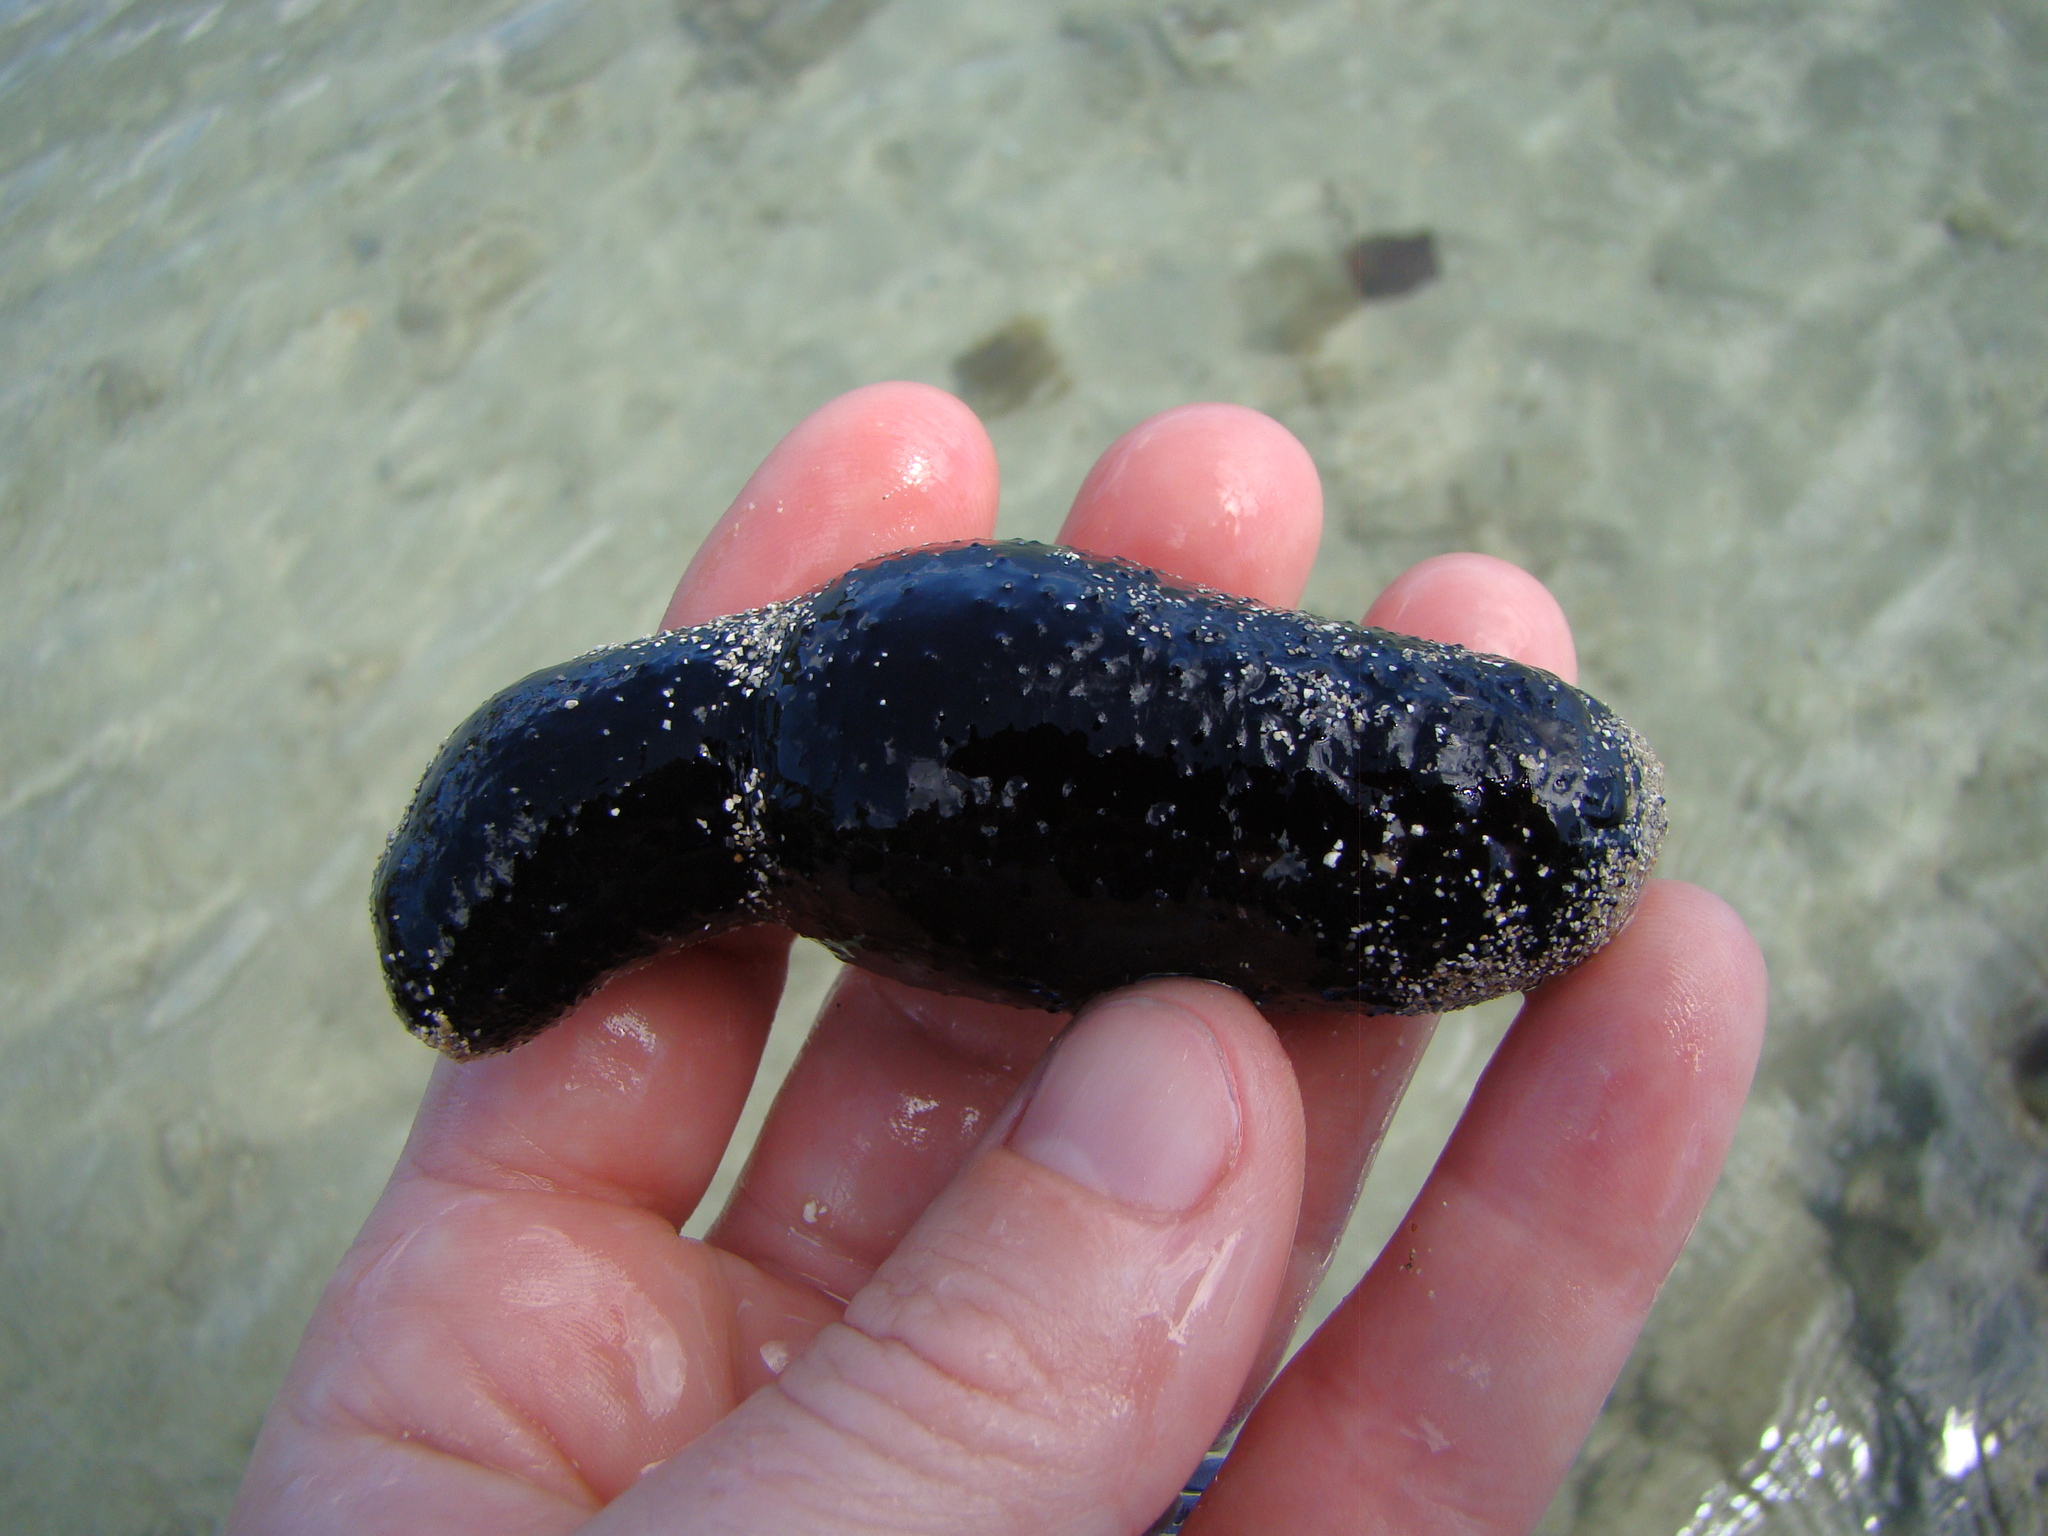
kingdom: Animalia
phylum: Echinodermata
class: Holothuroidea
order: Holothuriida
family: Holothuriidae
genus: Holothuria
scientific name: Holothuria atra
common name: Lollyfish
